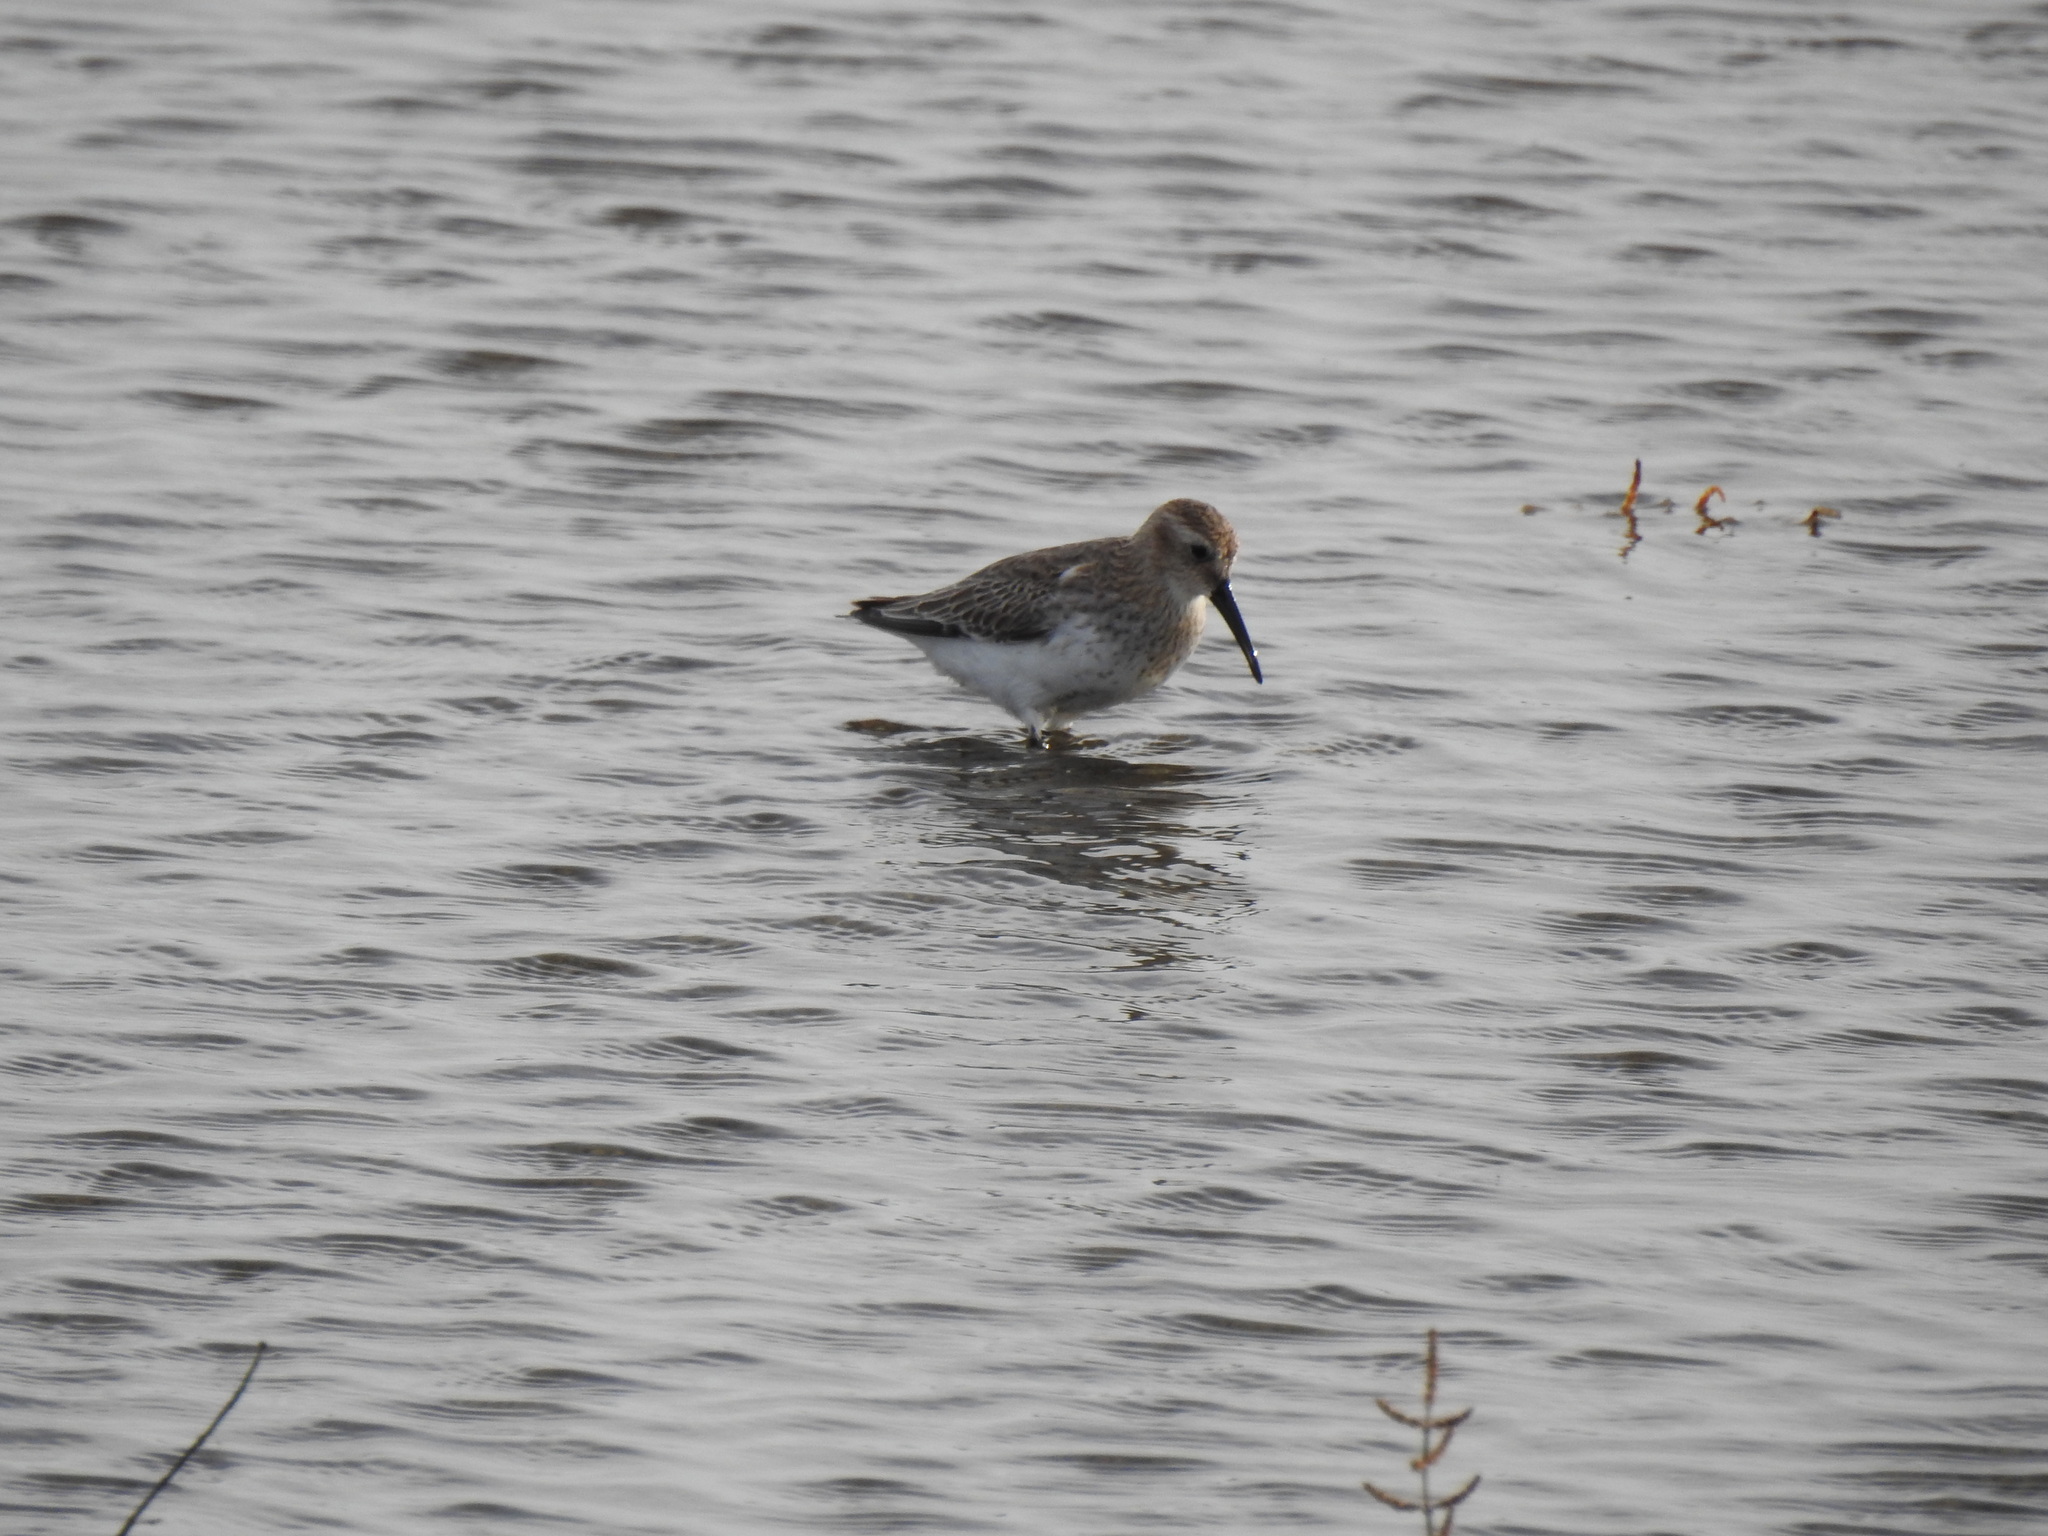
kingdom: Animalia
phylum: Chordata
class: Aves
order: Charadriiformes
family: Scolopacidae
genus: Calidris
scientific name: Calidris alpina
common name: Dunlin
